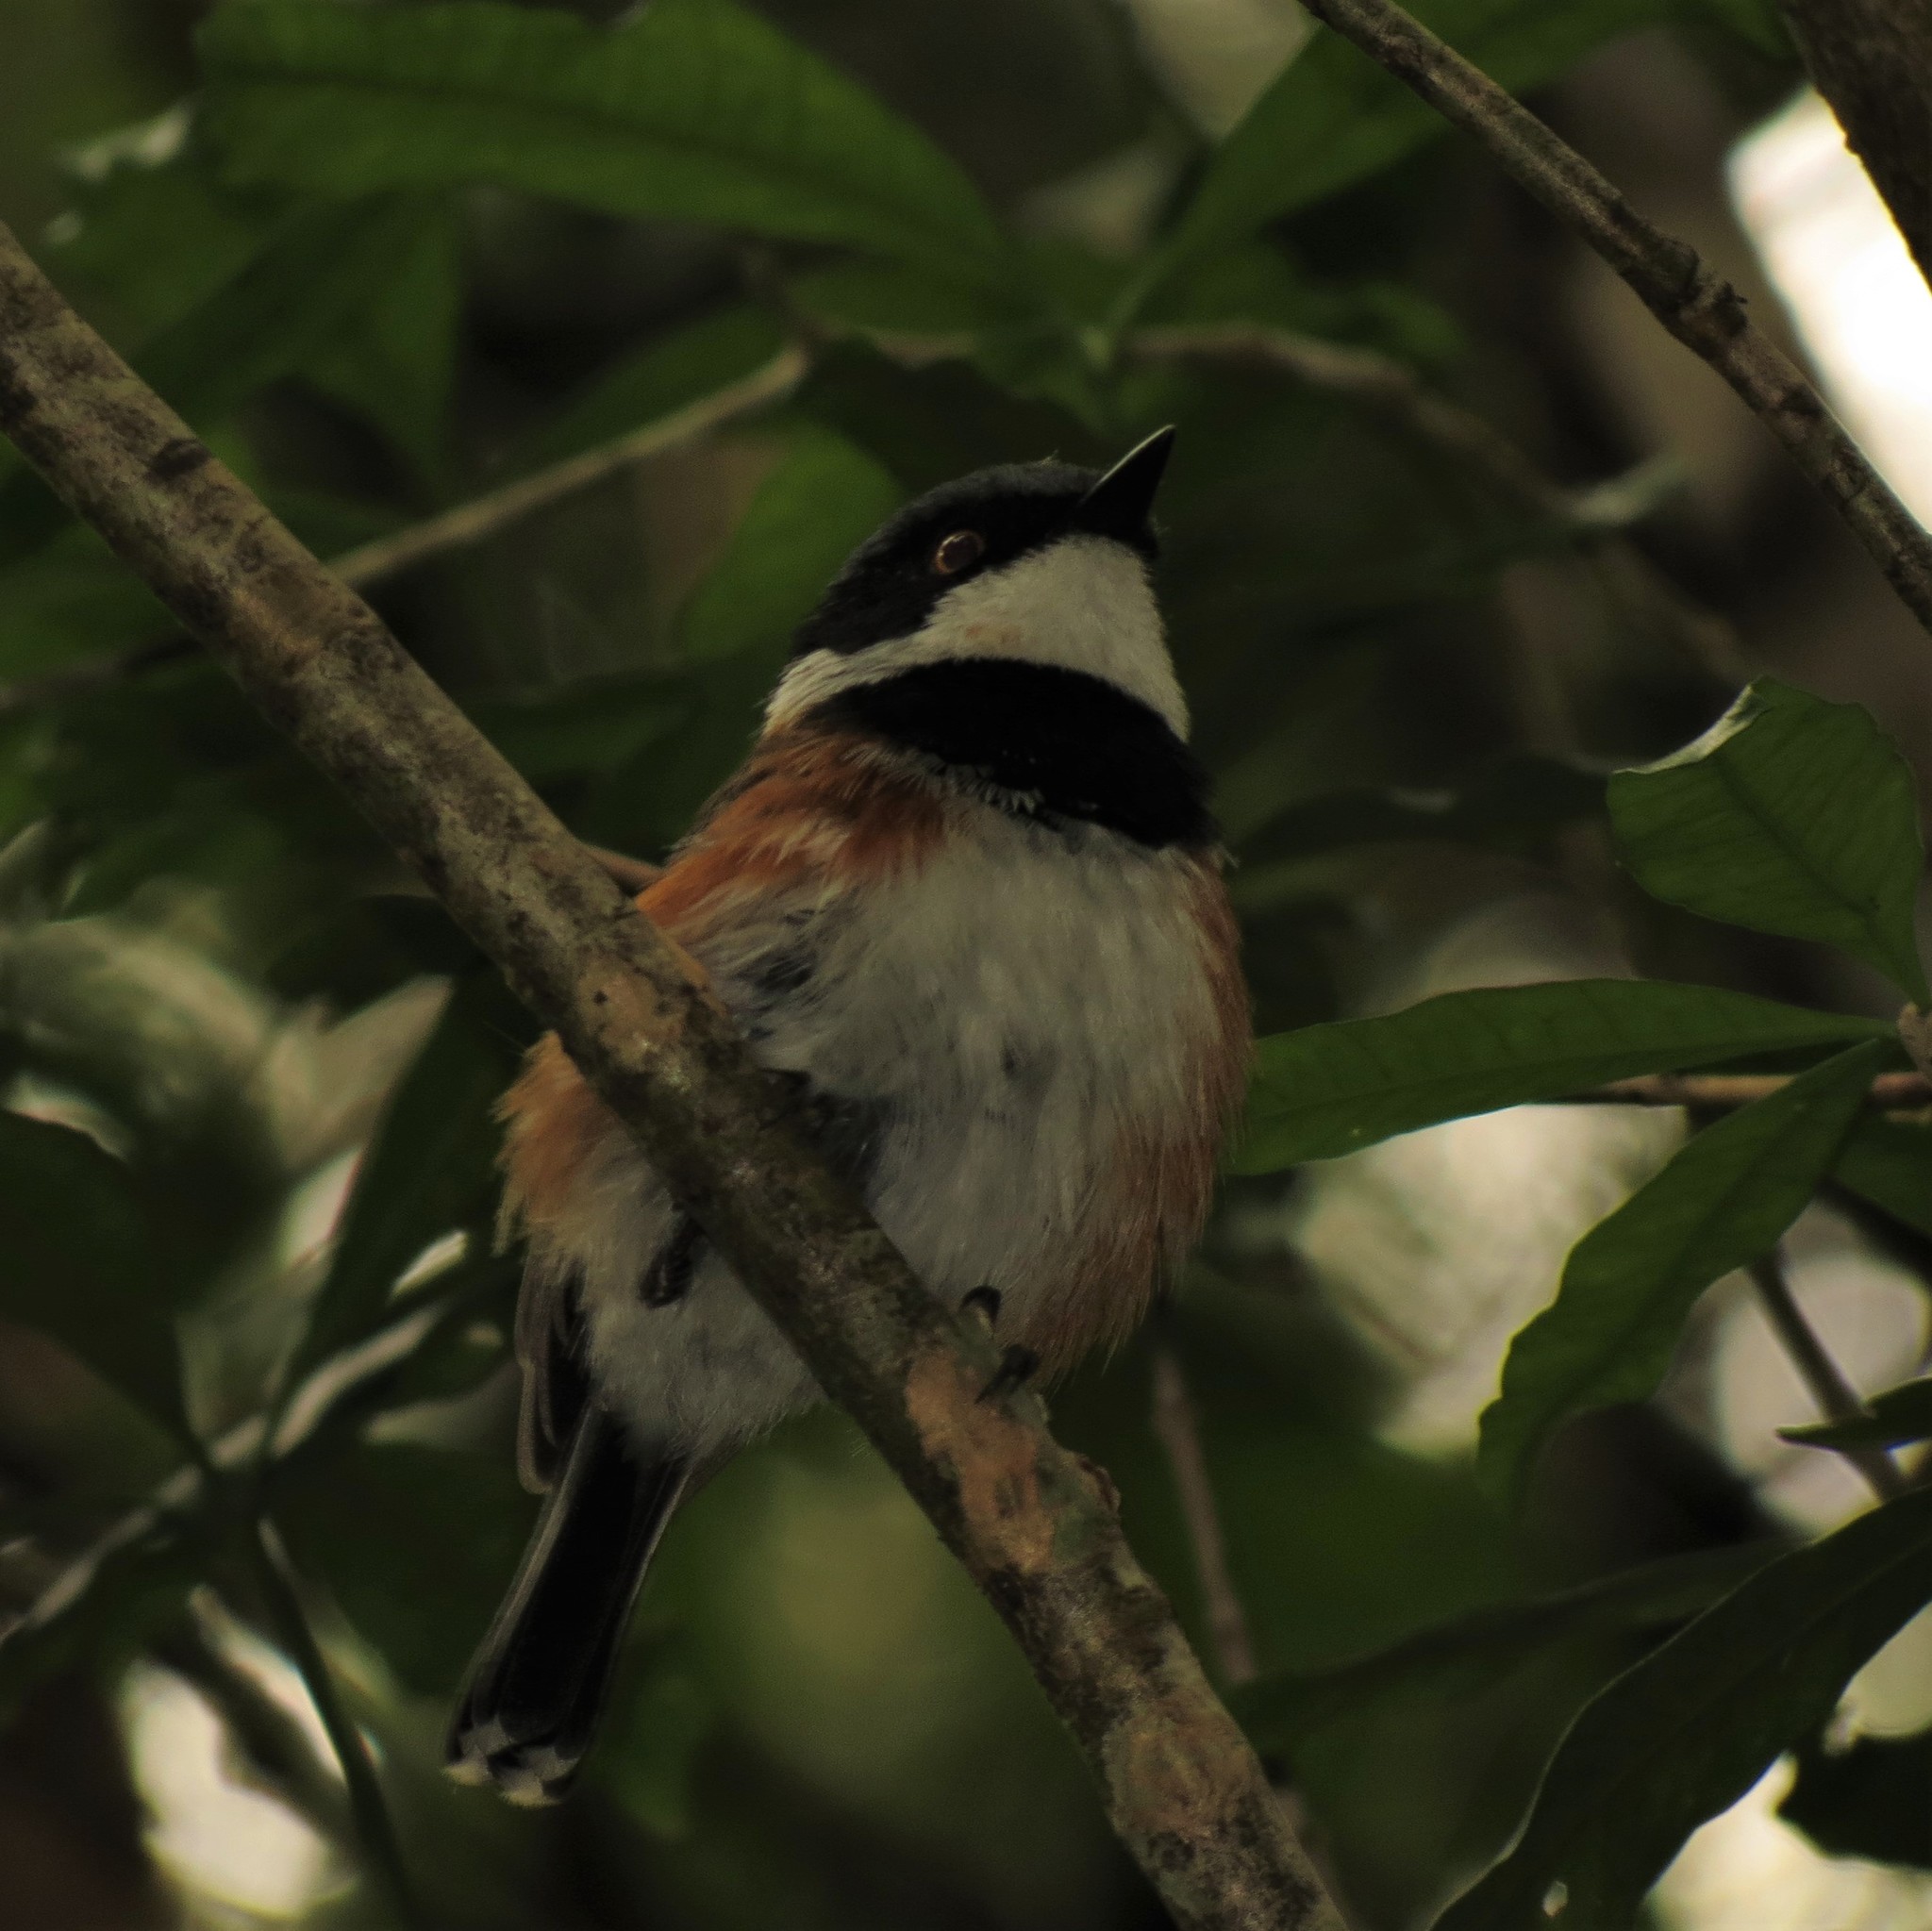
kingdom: Animalia
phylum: Chordata
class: Aves
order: Passeriformes
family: Platysteiridae
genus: Batis
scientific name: Batis capensis
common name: Cape batis
